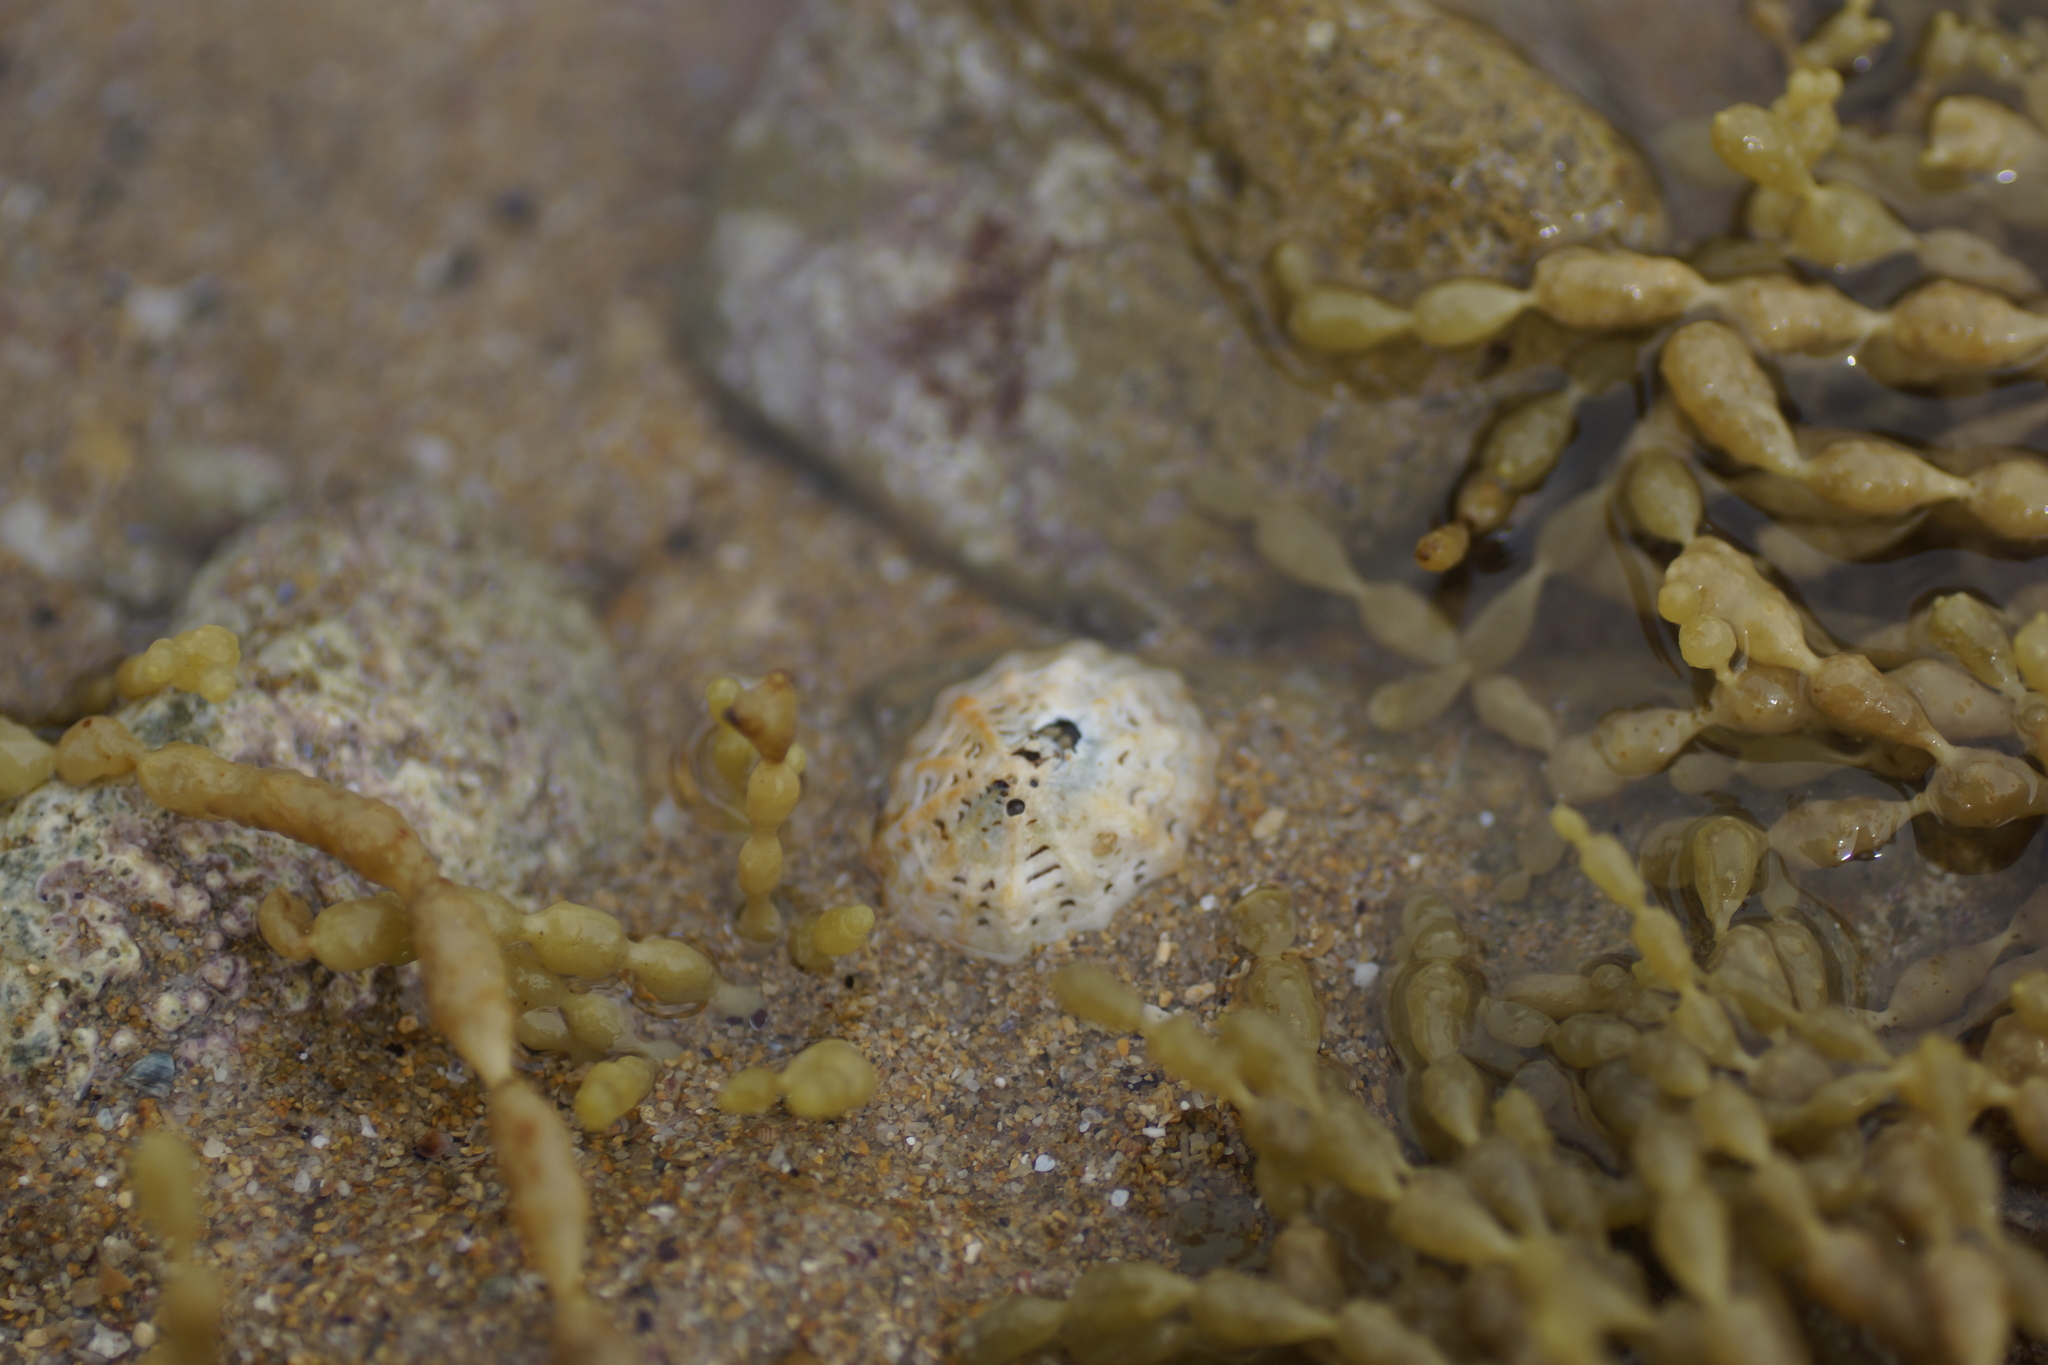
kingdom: Animalia
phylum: Mollusca
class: Gastropoda
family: Lottiidae
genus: Patelloida
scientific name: Patelloida alticostata
